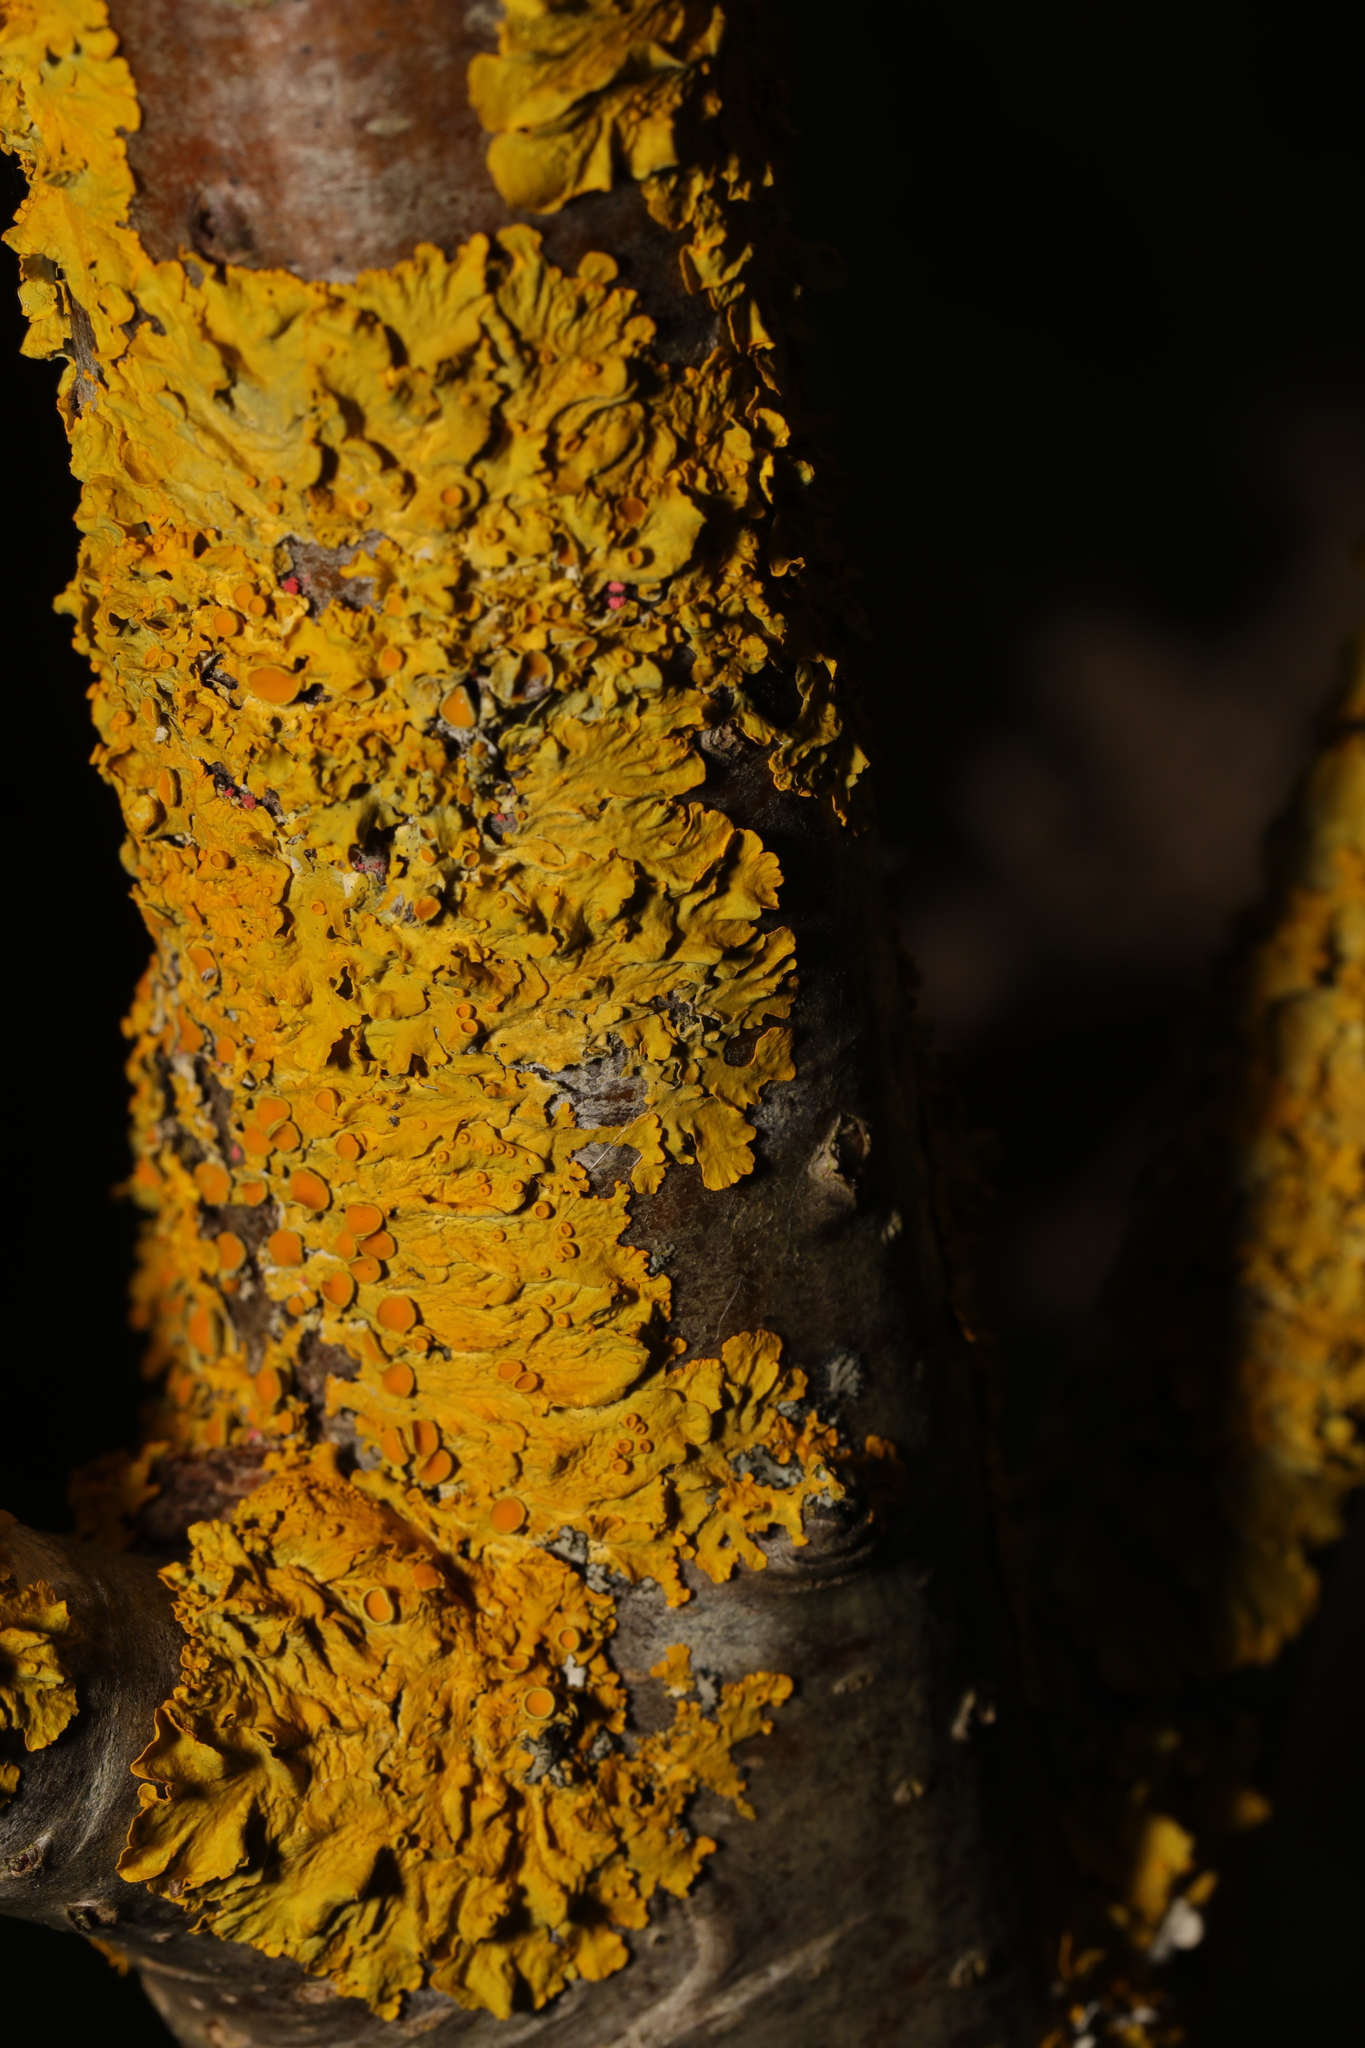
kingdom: Fungi
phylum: Ascomycota
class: Lecanoromycetes
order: Teloschistales
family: Teloschistaceae
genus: Xanthoria
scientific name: Xanthoria parietina
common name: Common orange lichen
